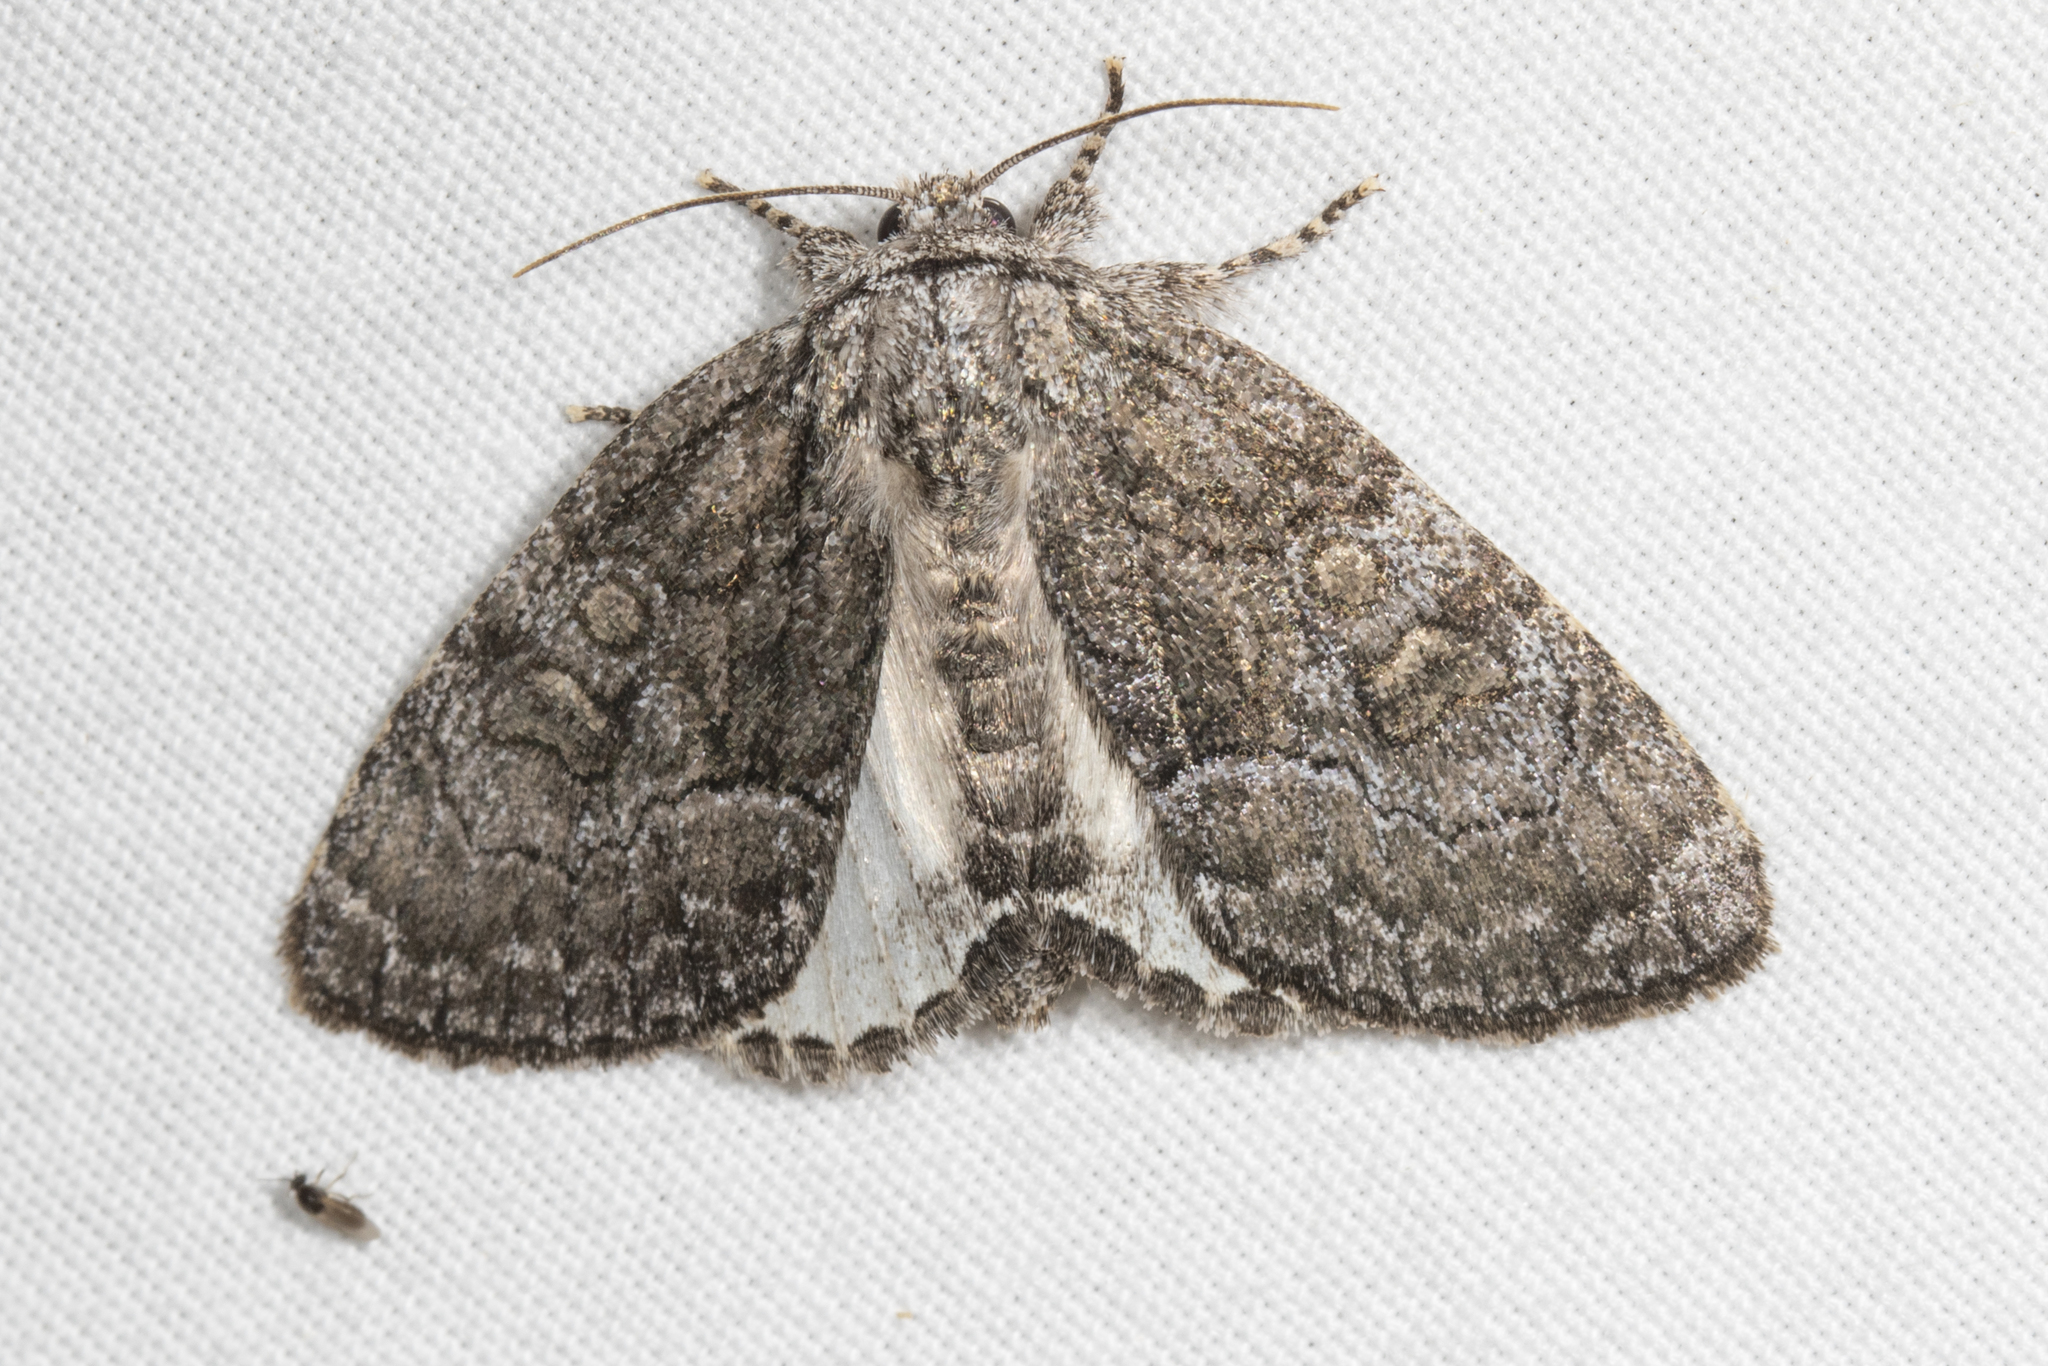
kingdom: Animalia
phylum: Arthropoda
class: Insecta
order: Lepidoptera
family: Noctuidae
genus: Raphia
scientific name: Raphia frater
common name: Brother
